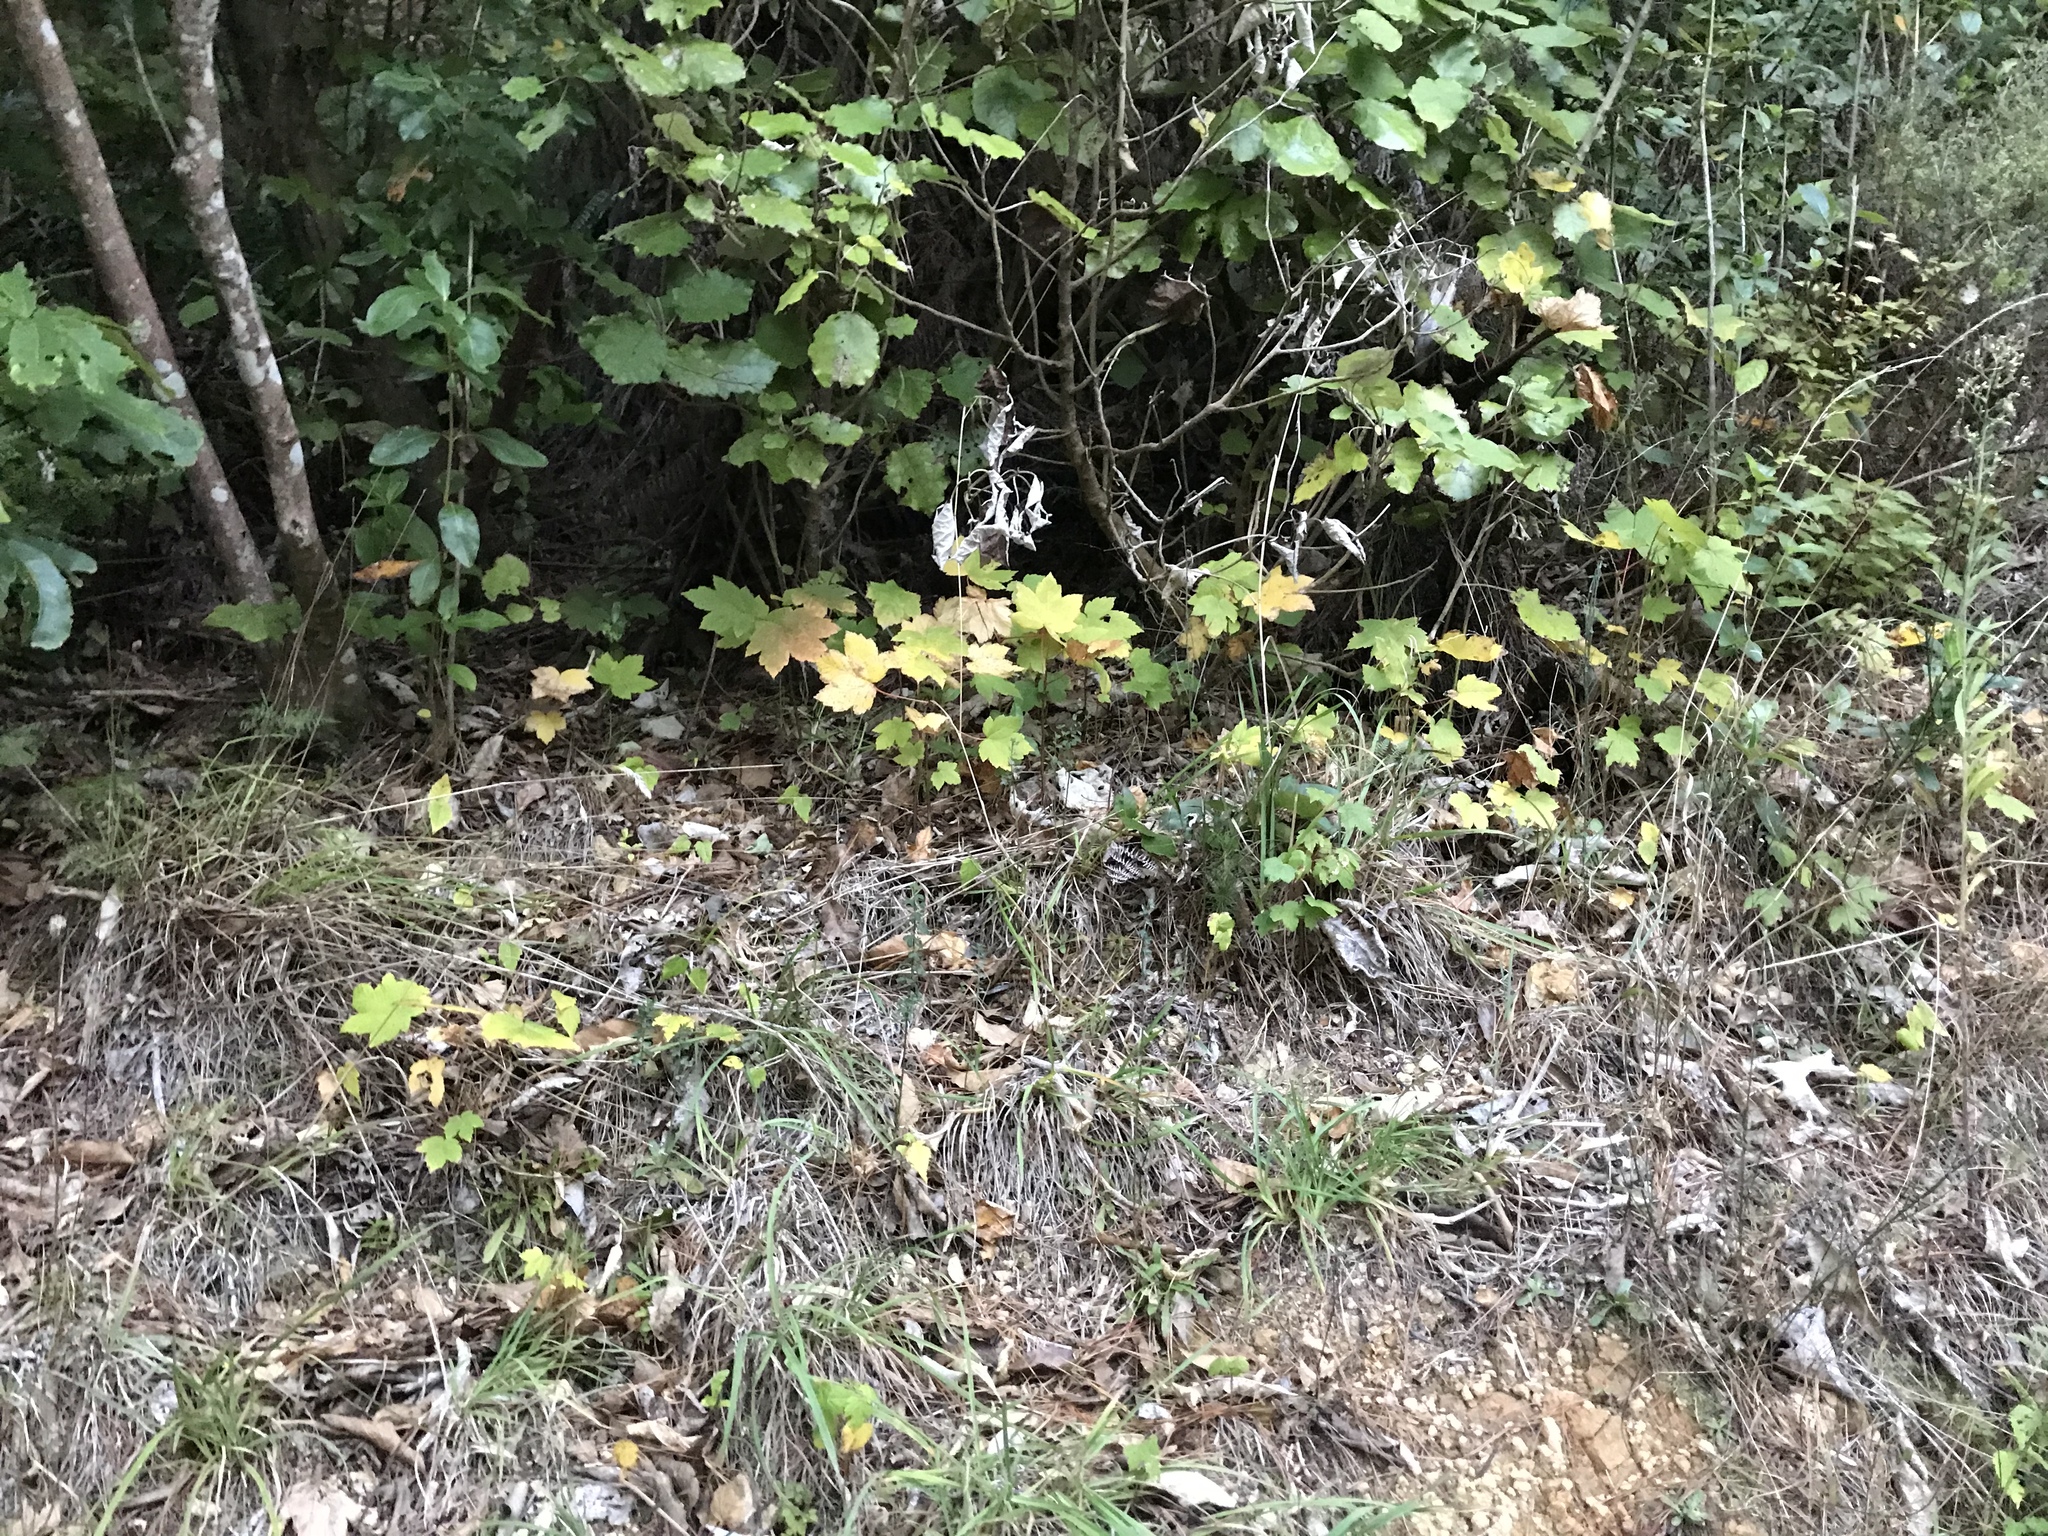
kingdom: Plantae
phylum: Tracheophyta
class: Magnoliopsida
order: Sapindales
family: Sapindaceae
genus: Acer
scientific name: Acer pseudoplatanus
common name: Sycamore
